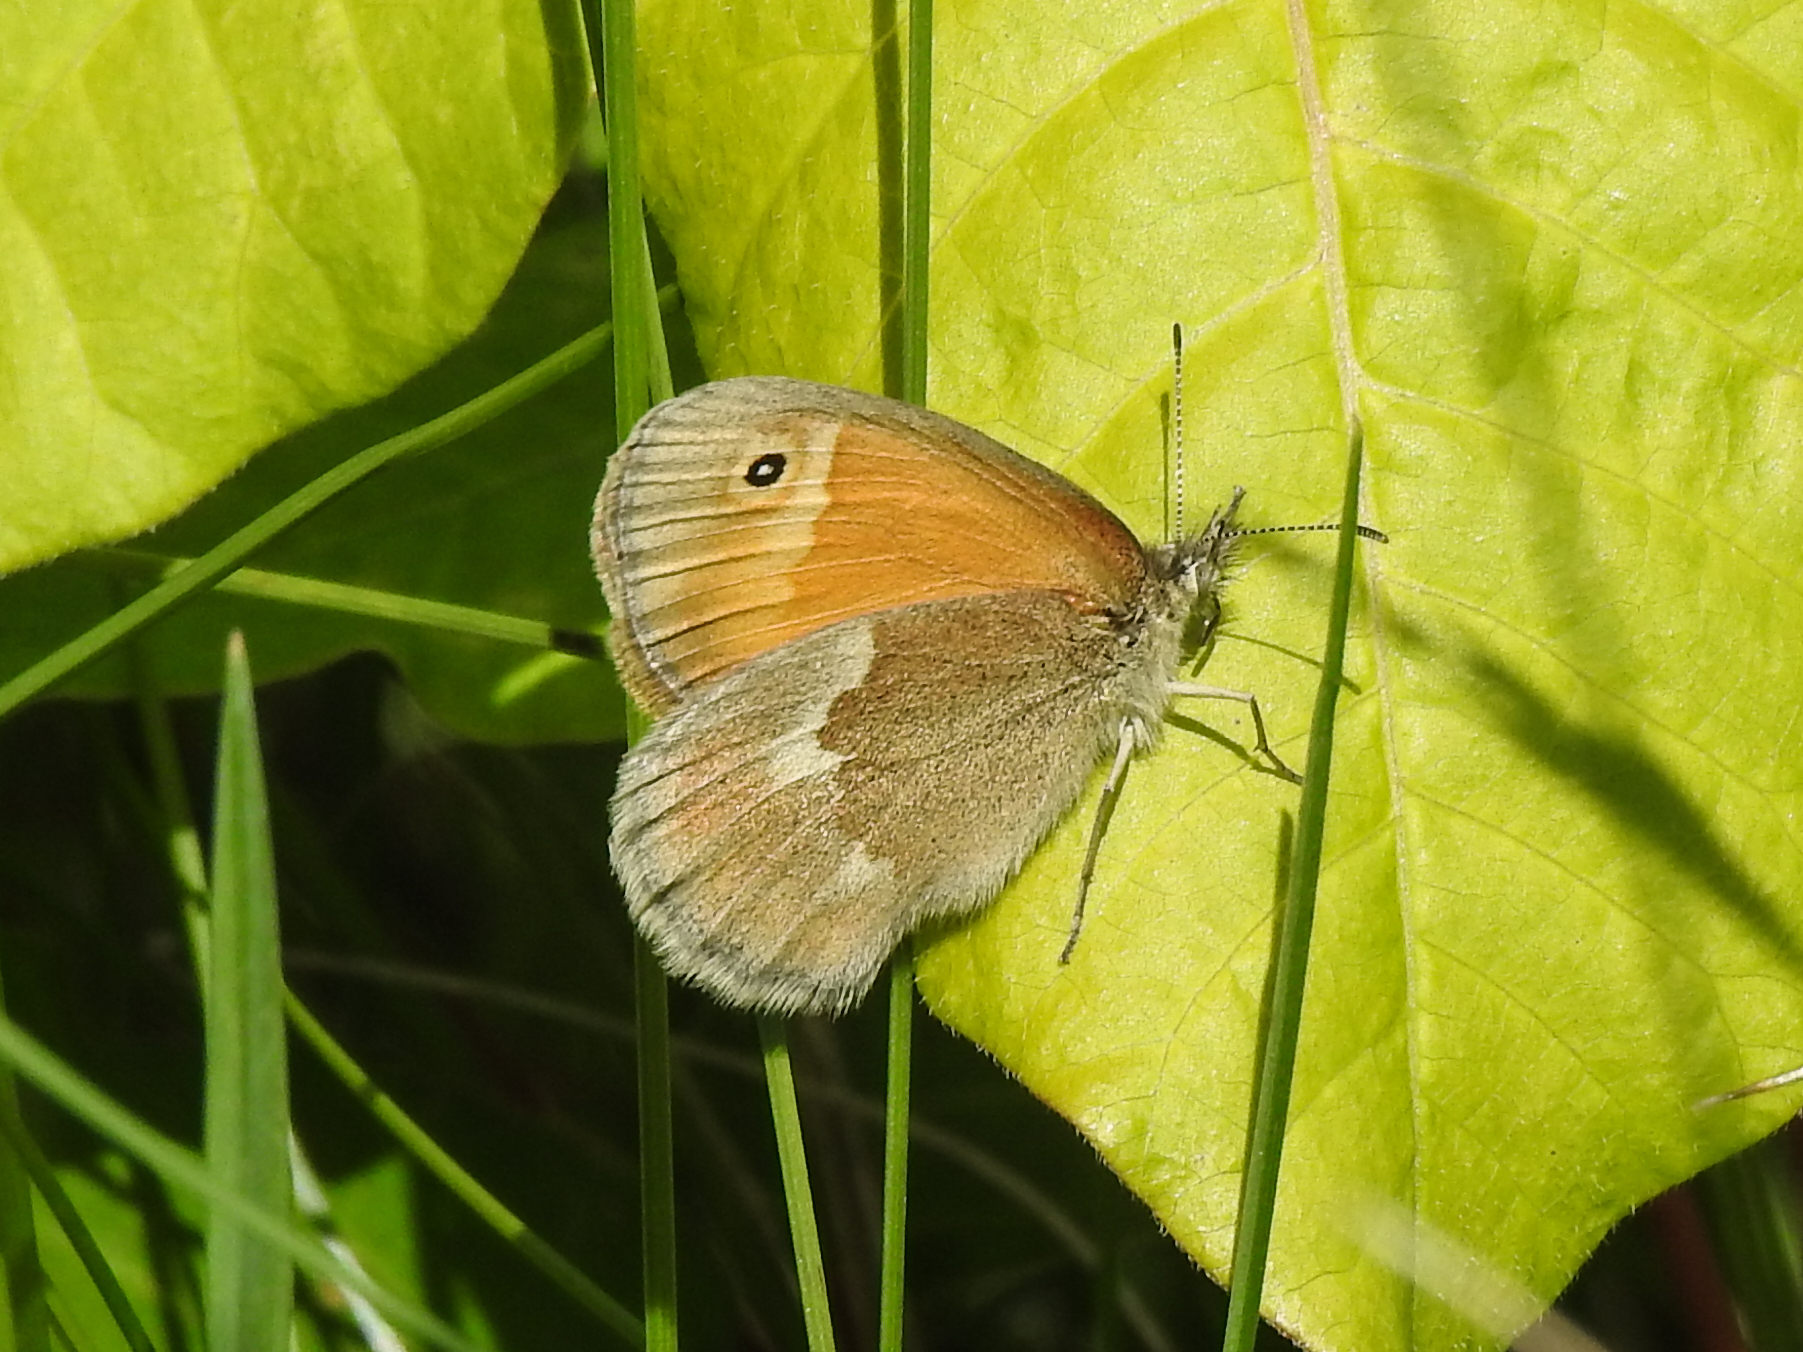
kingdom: Animalia
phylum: Arthropoda
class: Insecta
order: Lepidoptera
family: Nymphalidae
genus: Coenonympha
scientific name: Coenonympha california
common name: Common ringlet
